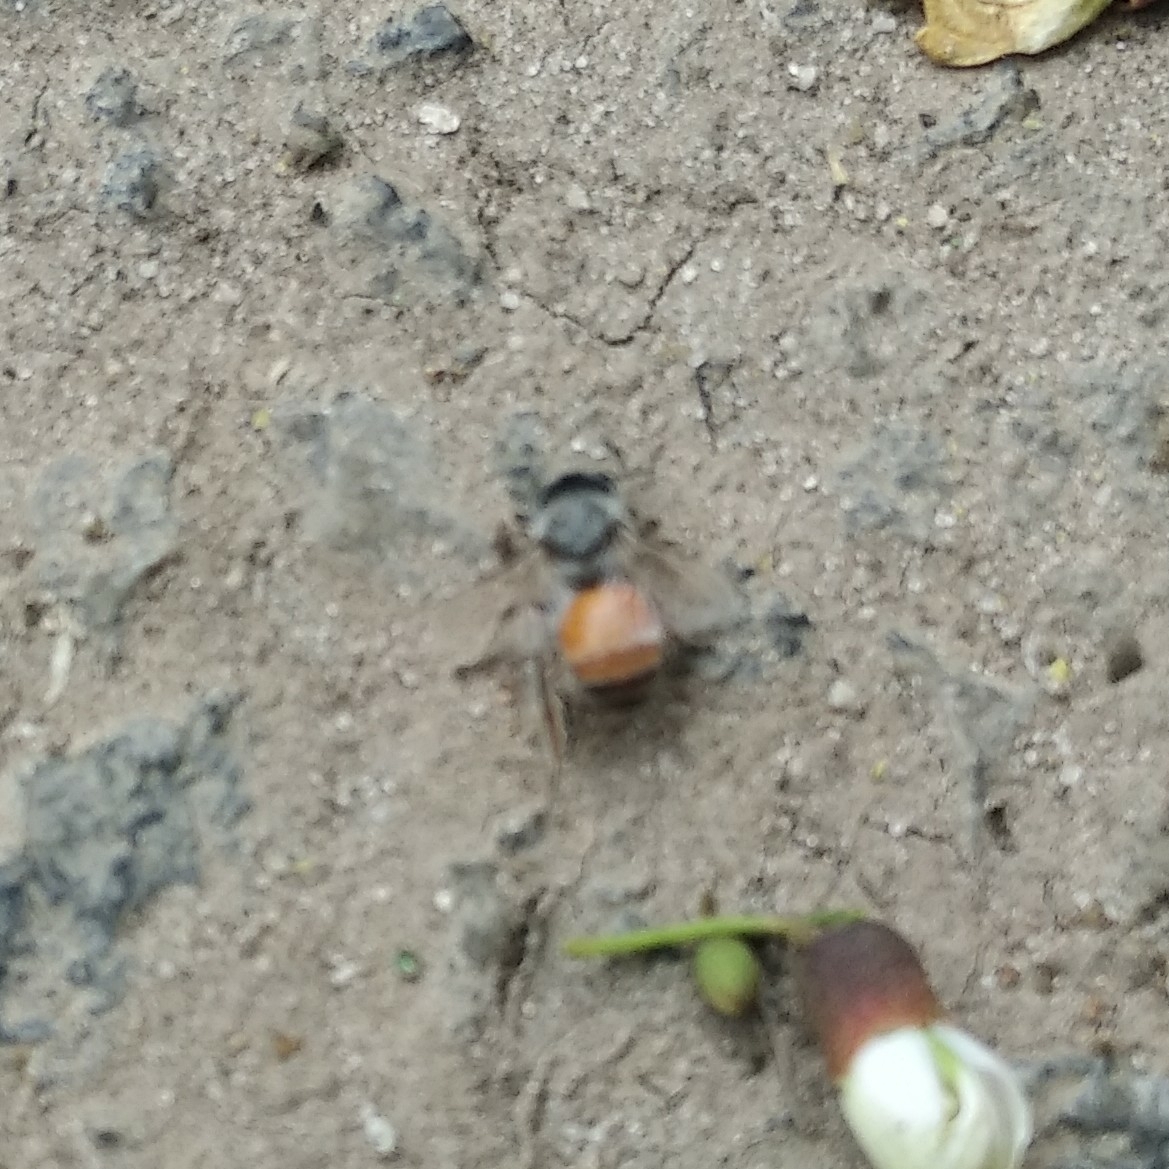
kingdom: Animalia
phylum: Arthropoda
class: Insecta
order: Hymenoptera
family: Apidae
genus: Apis
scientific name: Apis florea
